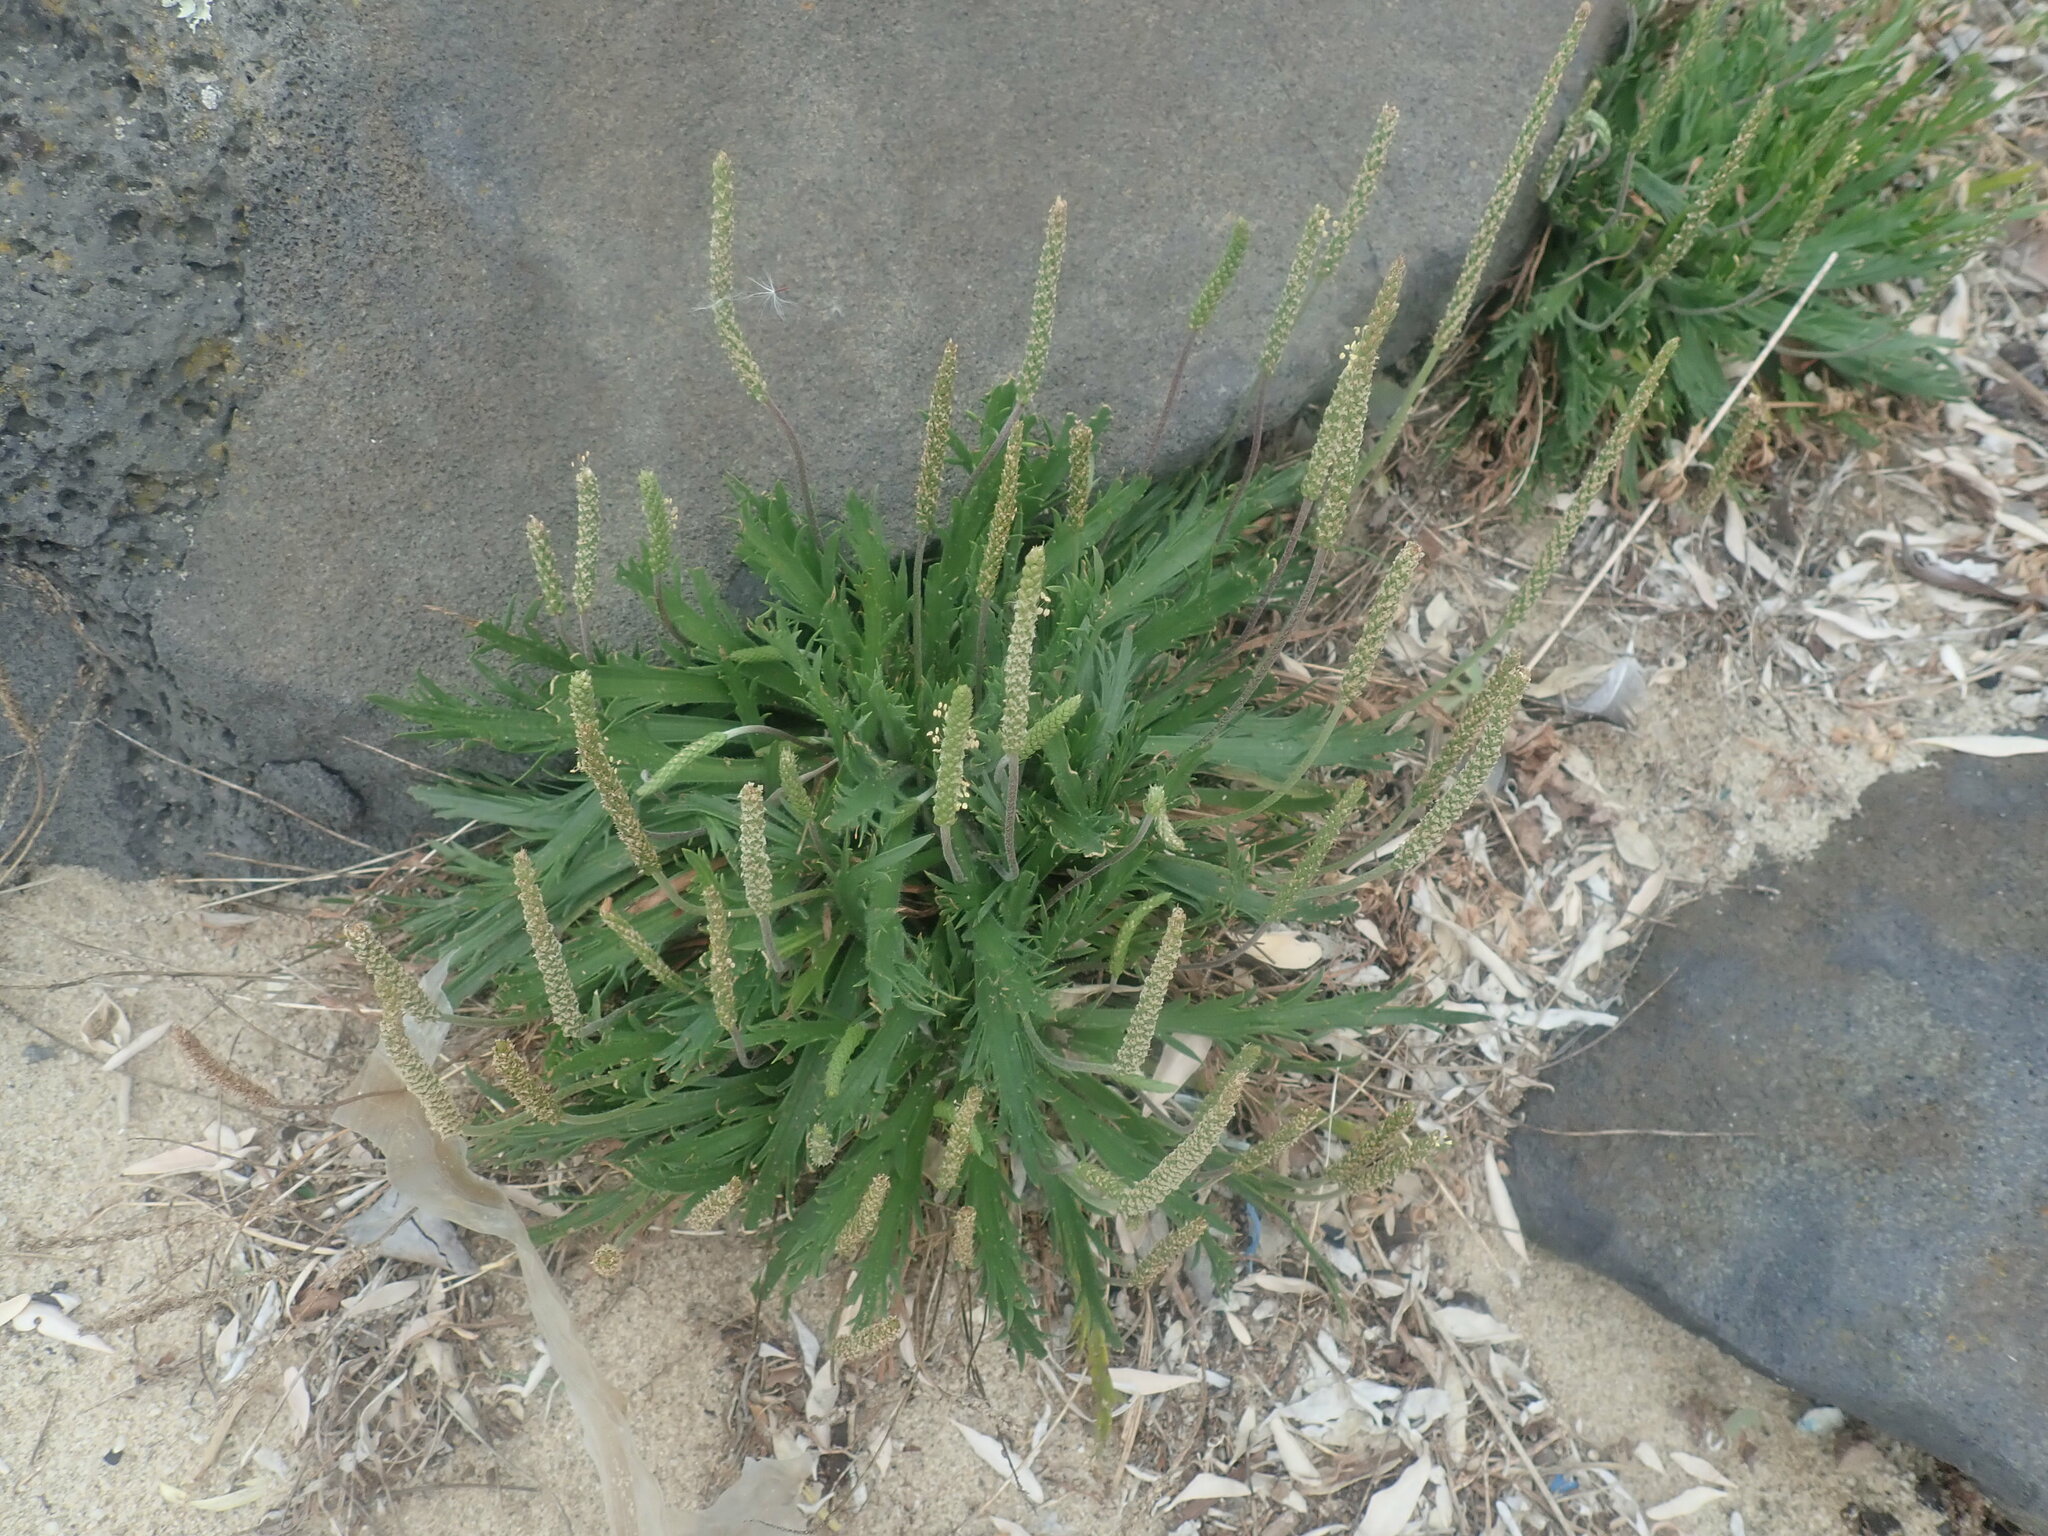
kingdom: Plantae
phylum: Tracheophyta
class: Magnoliopsida
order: Lamiales
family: Plantaginaceae
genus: Plantago
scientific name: Plantago coronopus
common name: Buck's-horn plantain
